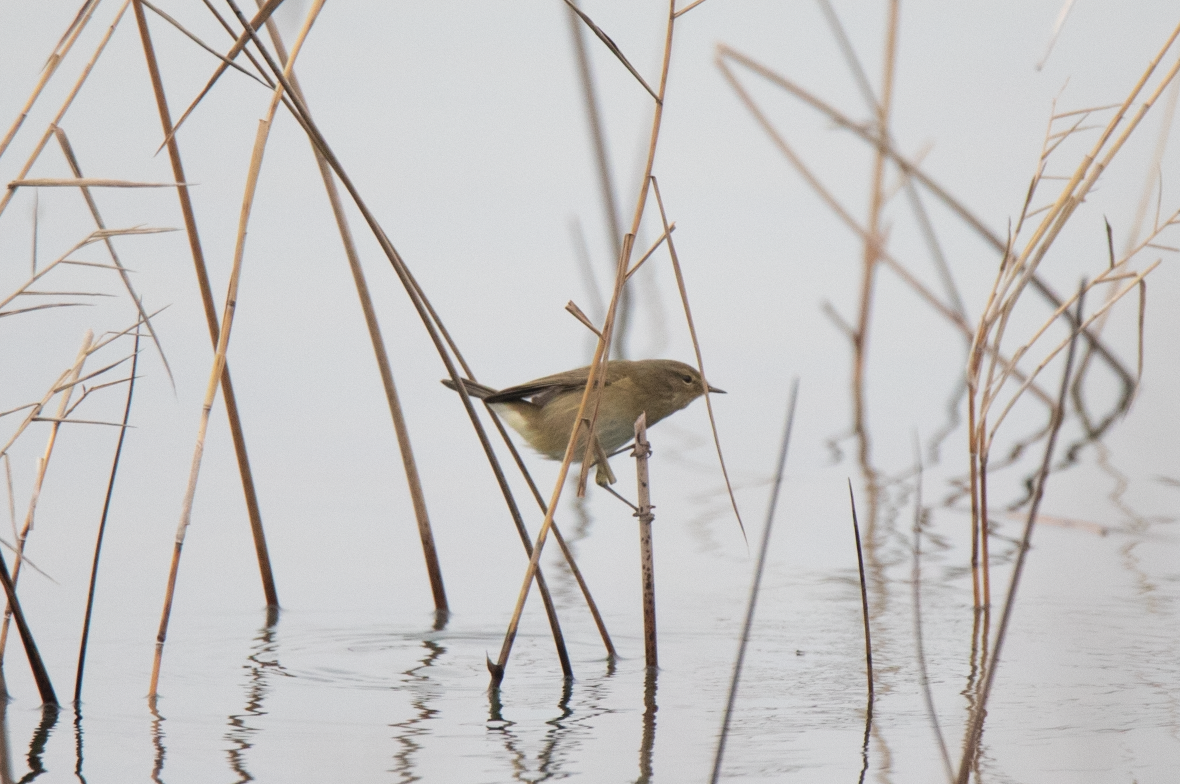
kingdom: Animalia
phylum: Chordata
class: Aves
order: Passeriformes
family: Phylloscopidae
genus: Phylloscopus
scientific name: Phylloscopus collybita
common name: Common chiffchaff
